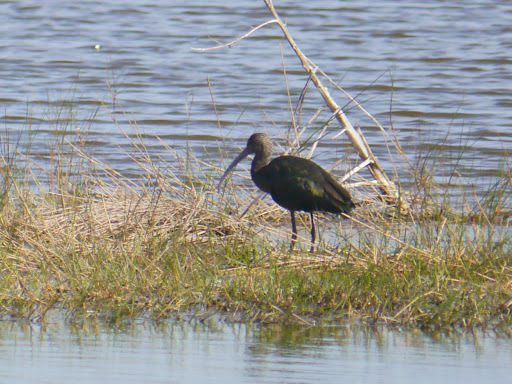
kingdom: Animalia
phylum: Chordata
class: Aves
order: Pelecaniformes
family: Threskiornithidae
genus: Plegadis
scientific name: Plegadis falcinellus
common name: Glossy ibis
